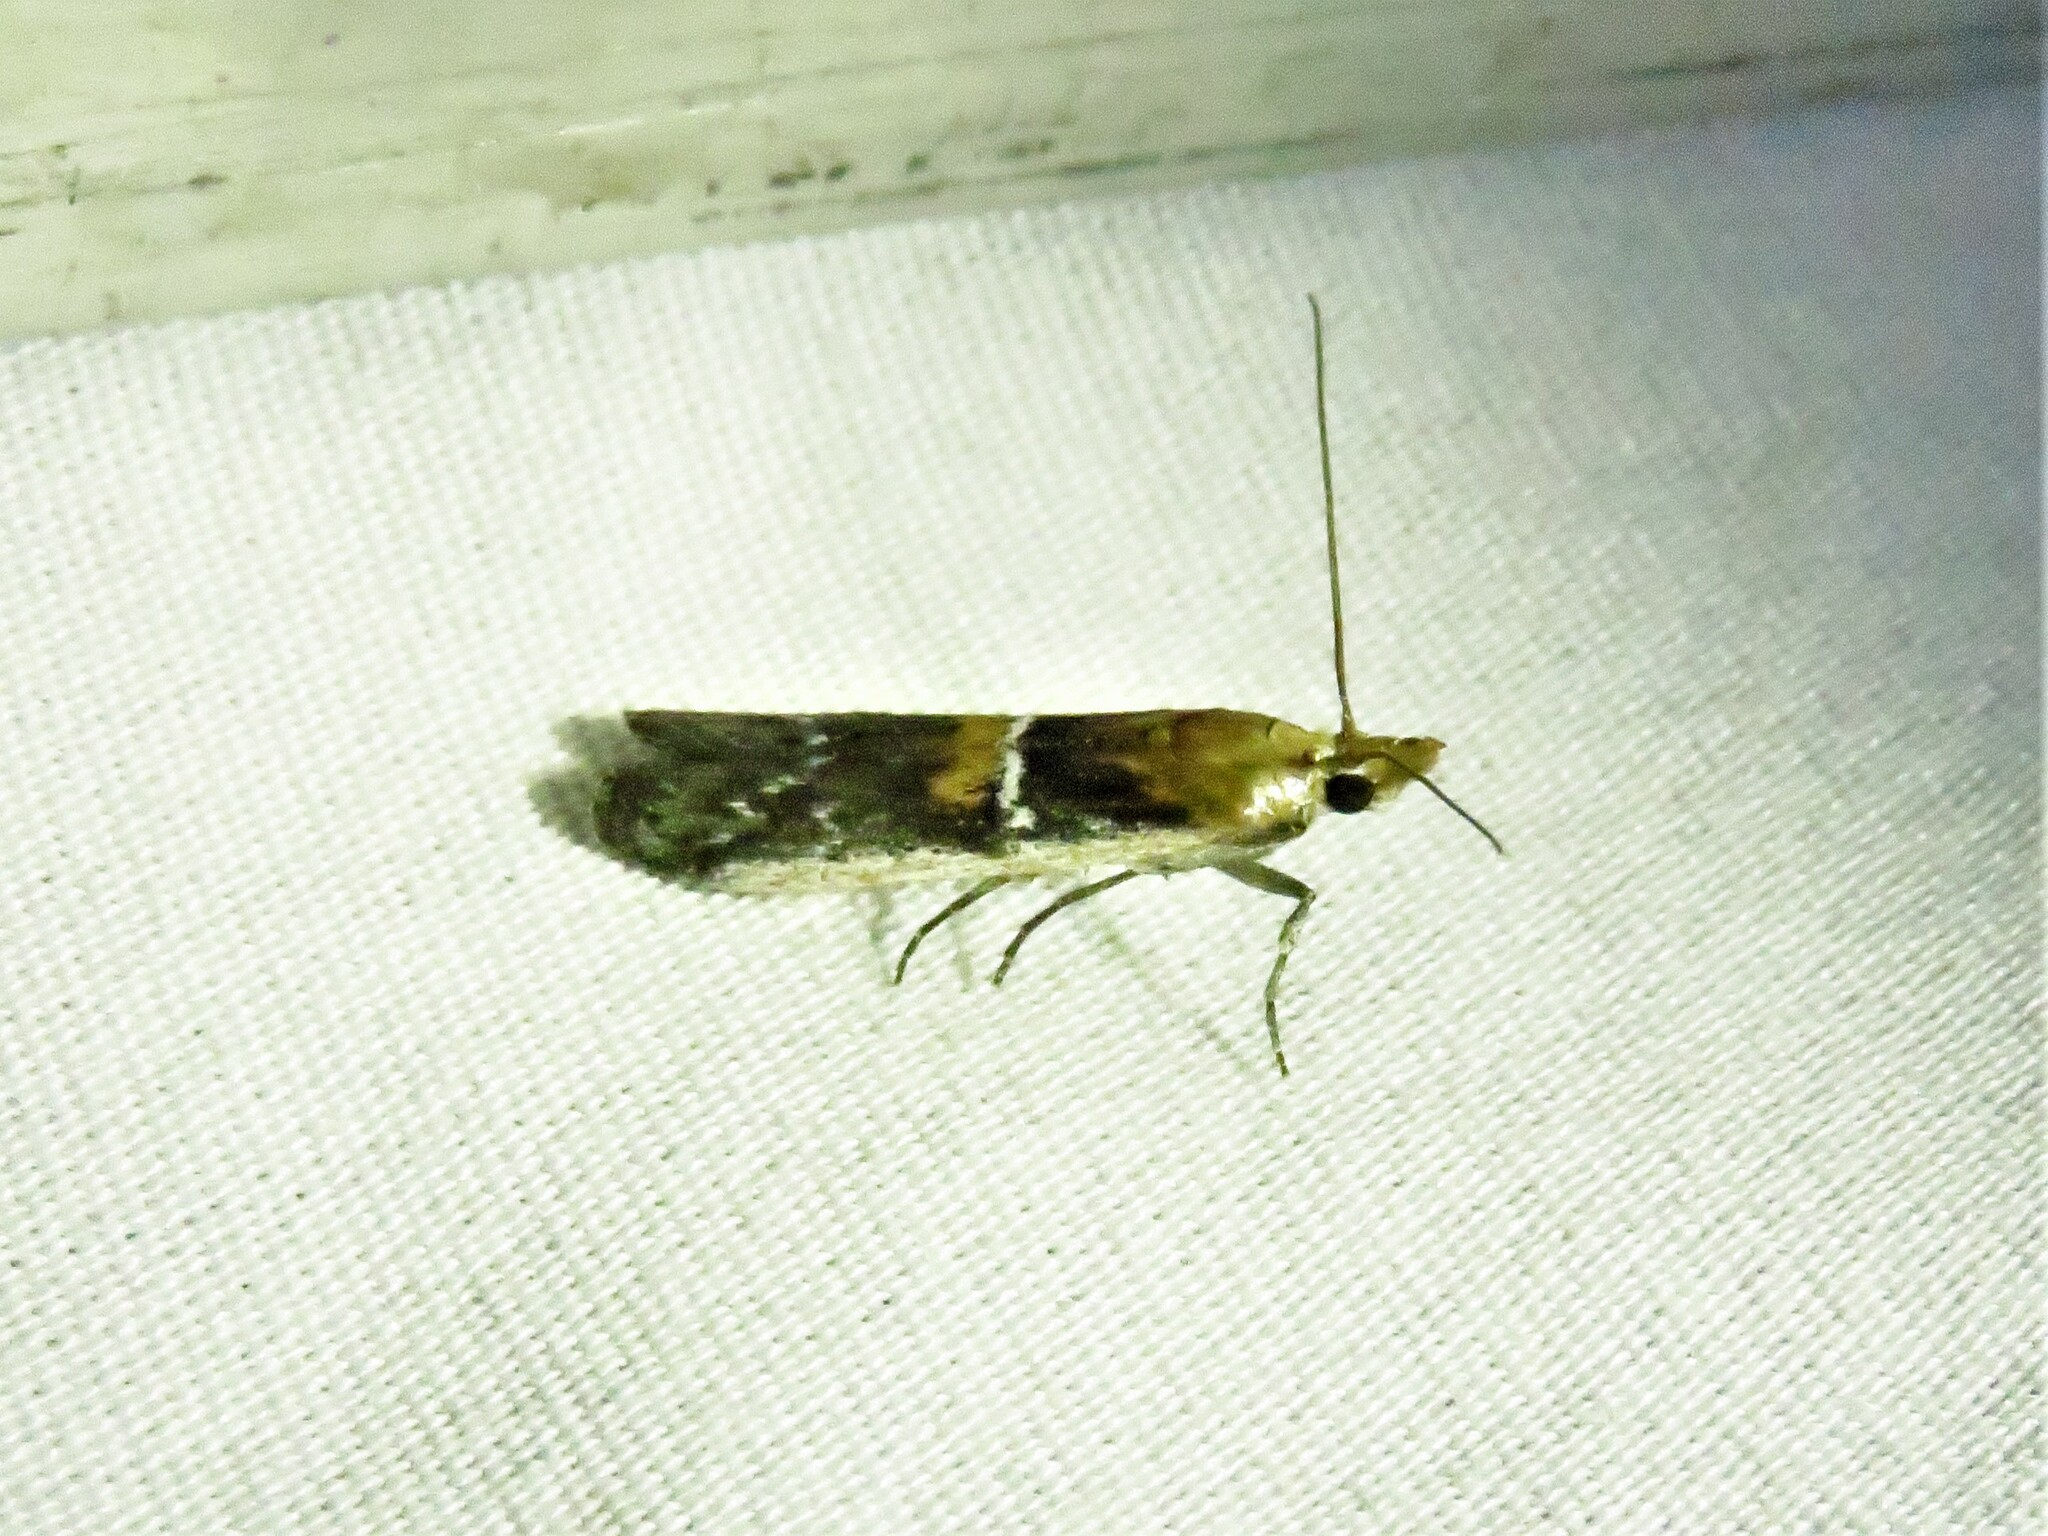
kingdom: Animalia
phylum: Arthropoda
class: Insecta
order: Lepidoptera
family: Pyralidae
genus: Honora
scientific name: Honora mellinella
